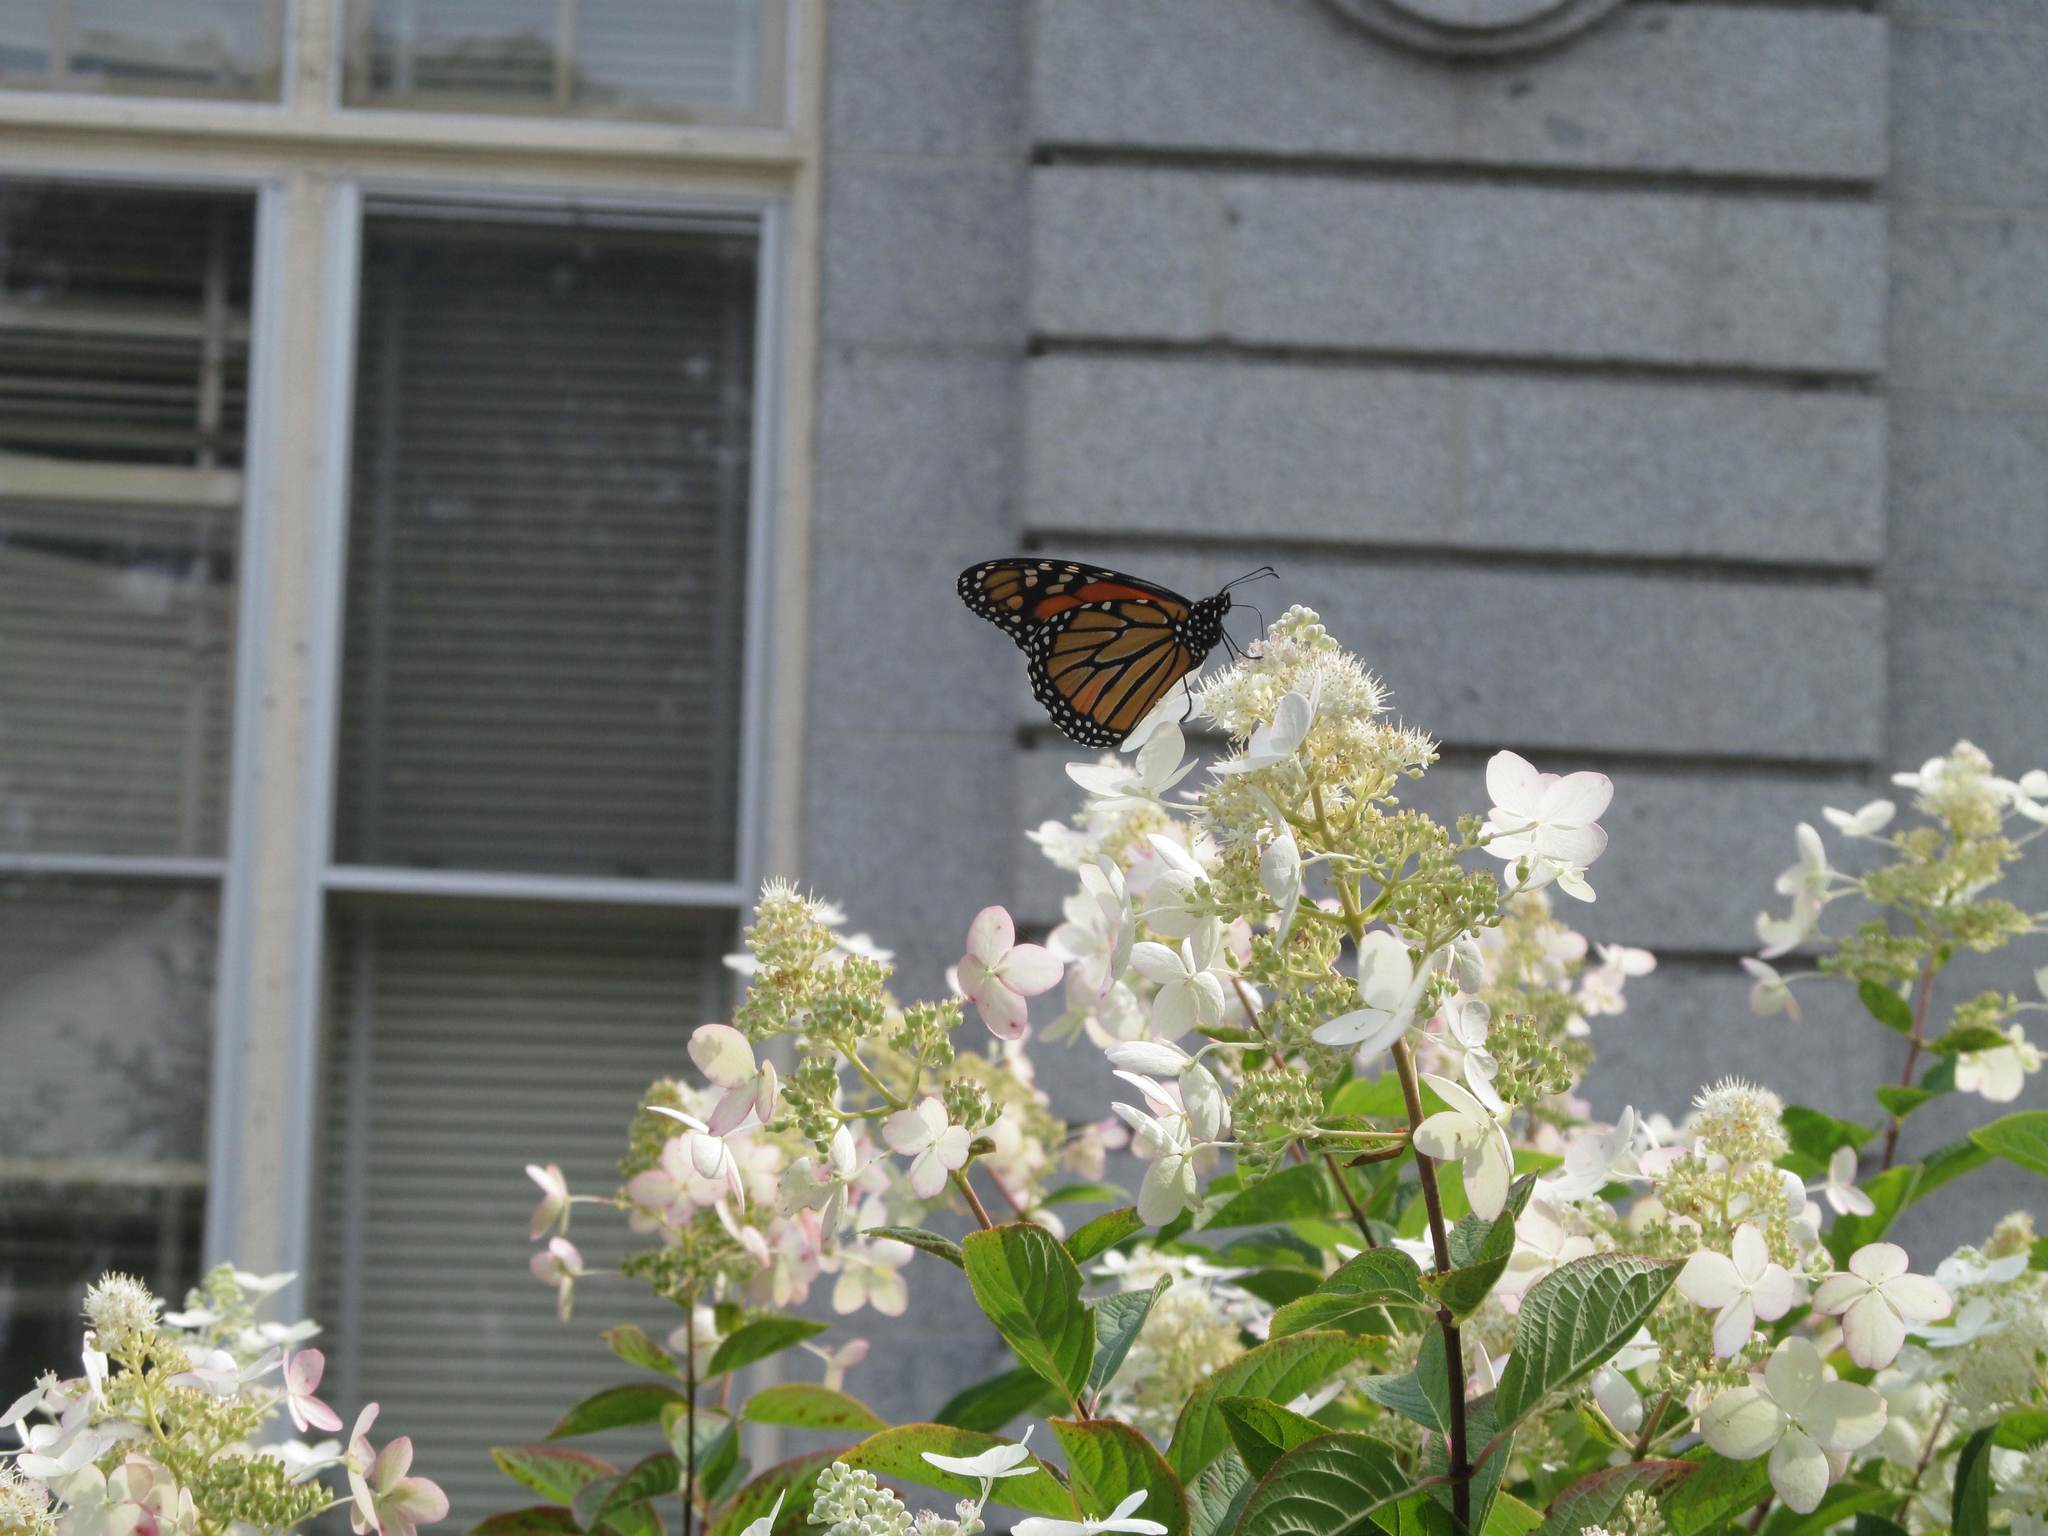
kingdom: Animalia
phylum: Arthropoda
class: Insecta
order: Lepidoptera
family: Nymphalidae
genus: Danaus
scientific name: Danaus plexippus
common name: Monarch
